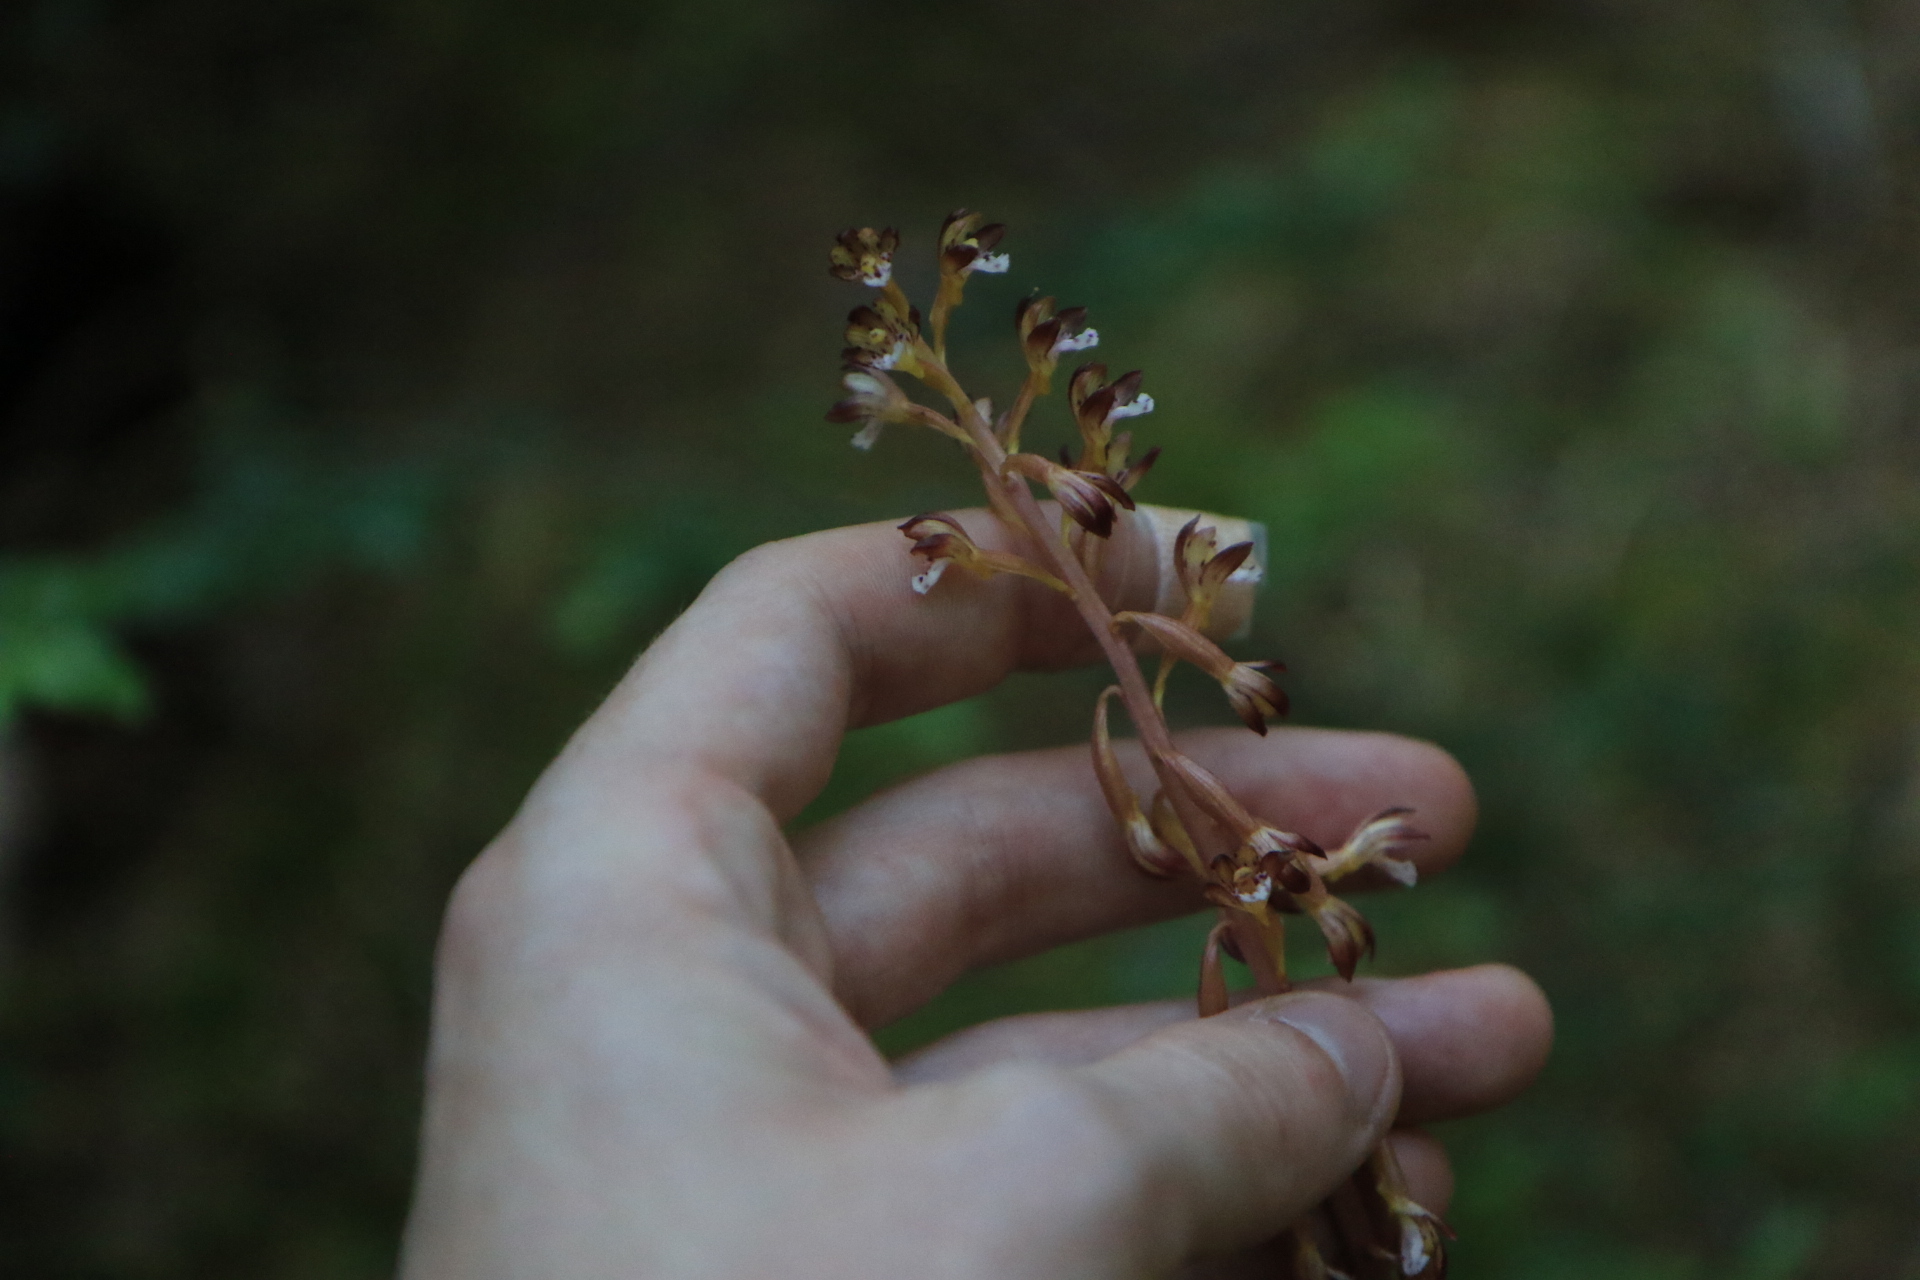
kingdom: Plantae
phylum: Tracheophyta
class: Liliopsida
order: Asparagales
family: Orchidaceae
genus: Corallorhiza
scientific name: Corallorhiza maculata
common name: Spotted coralroot
